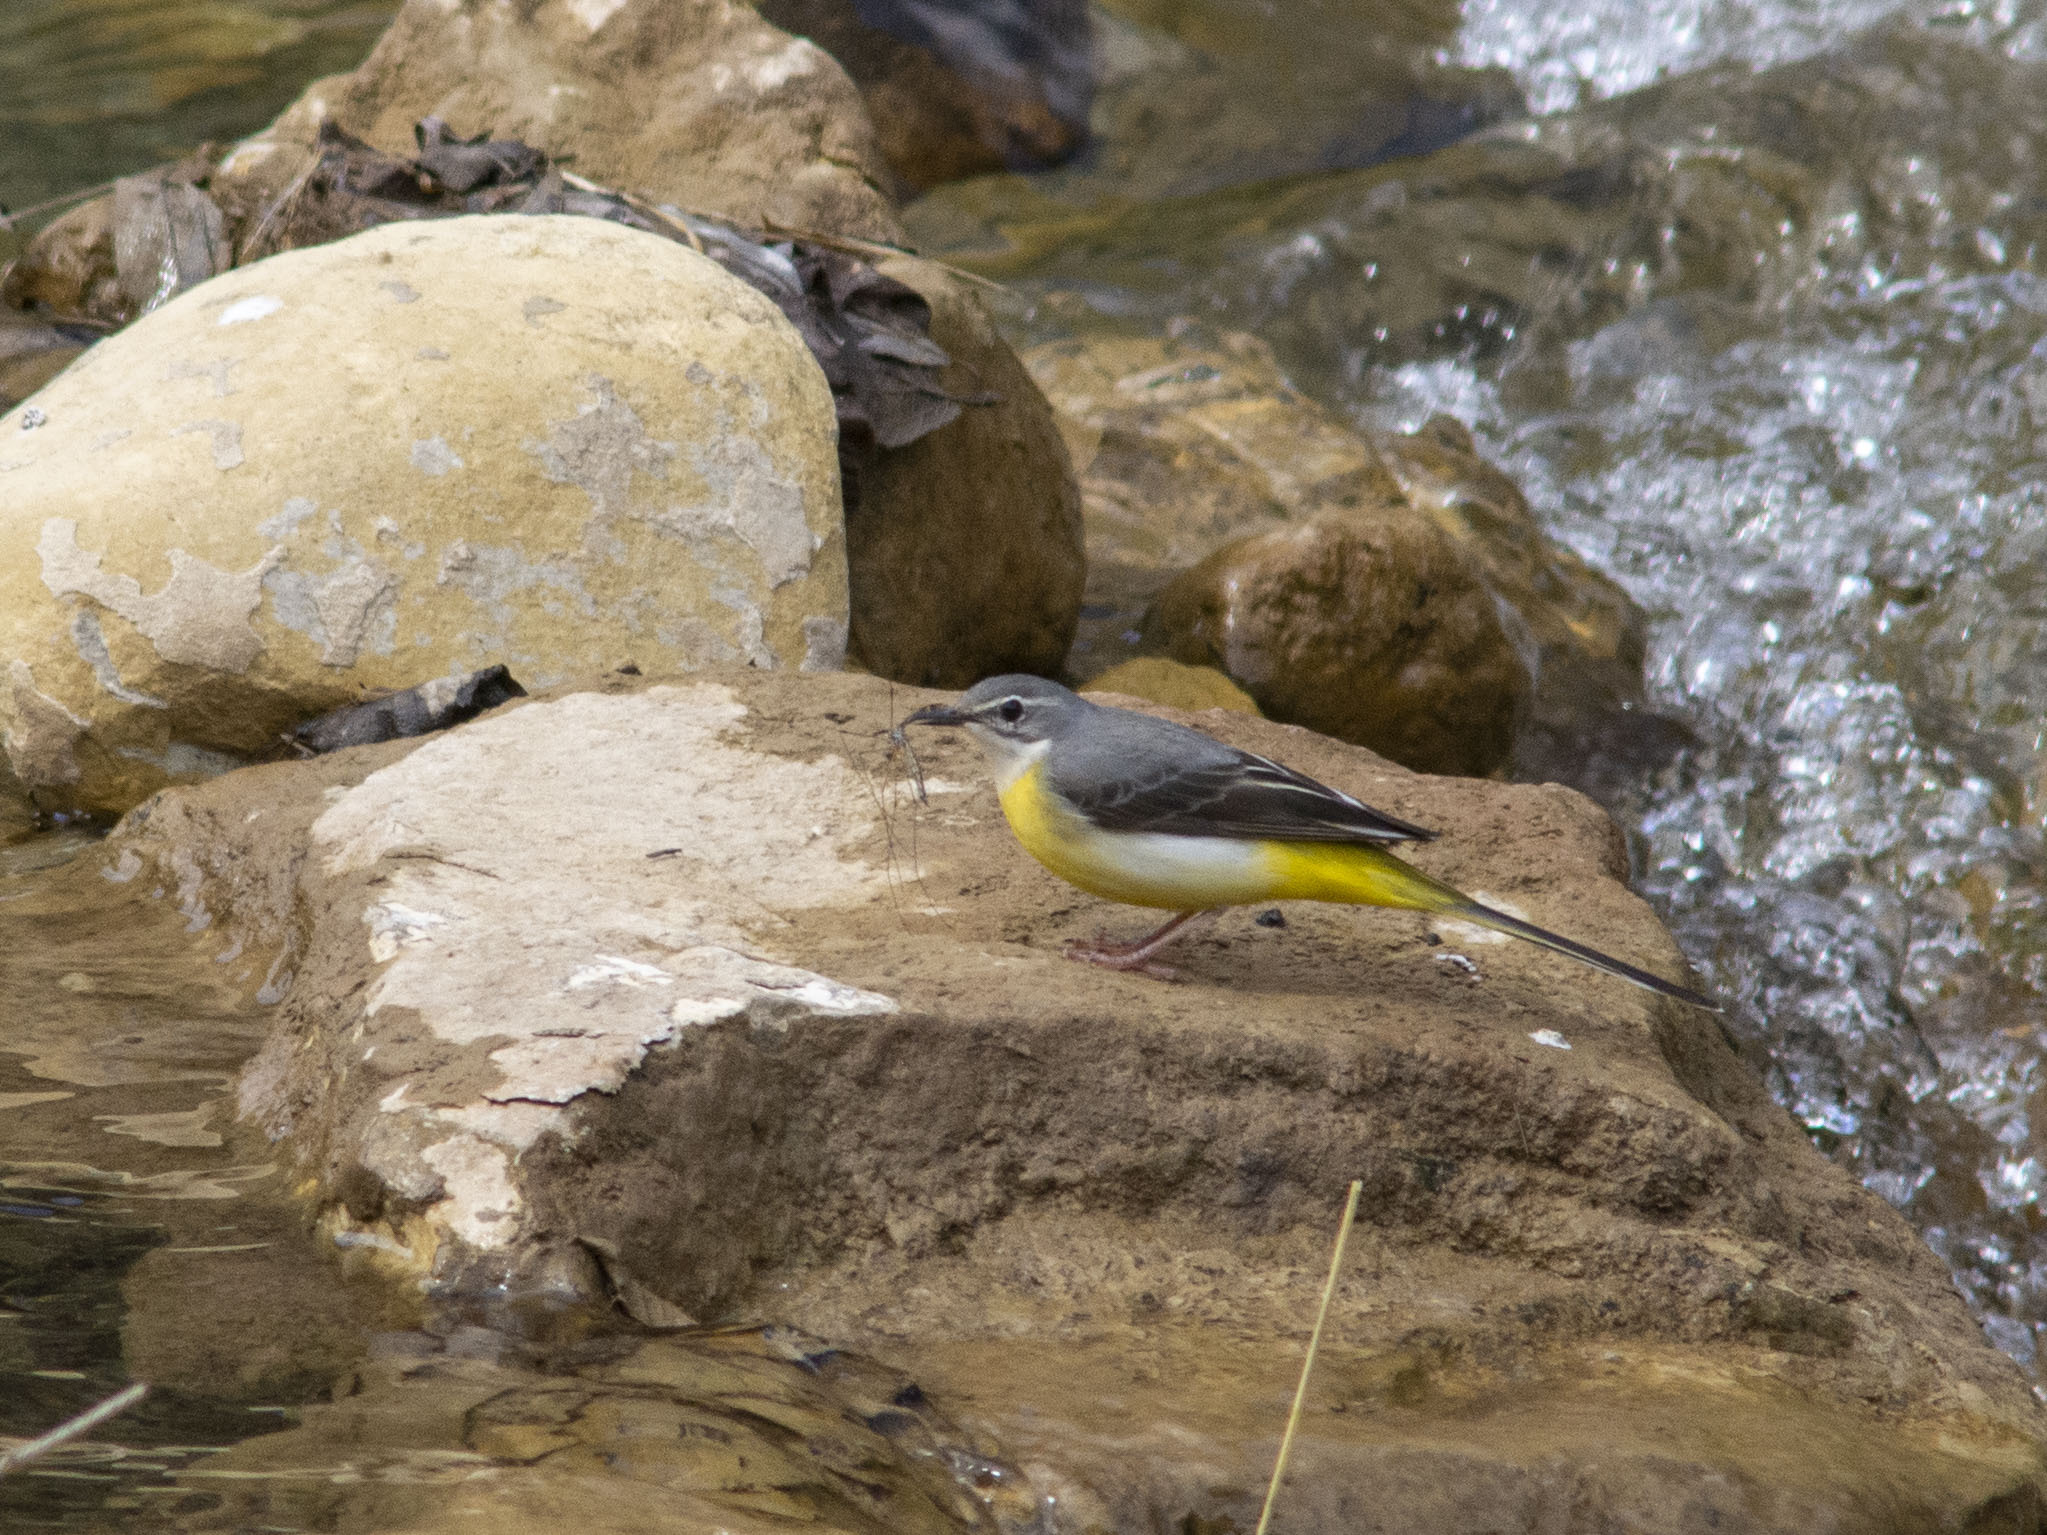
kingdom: Animalia
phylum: Chordata
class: Aves
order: Passeriformes
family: Motacillidae
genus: Motacilla
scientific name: Motacilla cinerea
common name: Grey wagtail
